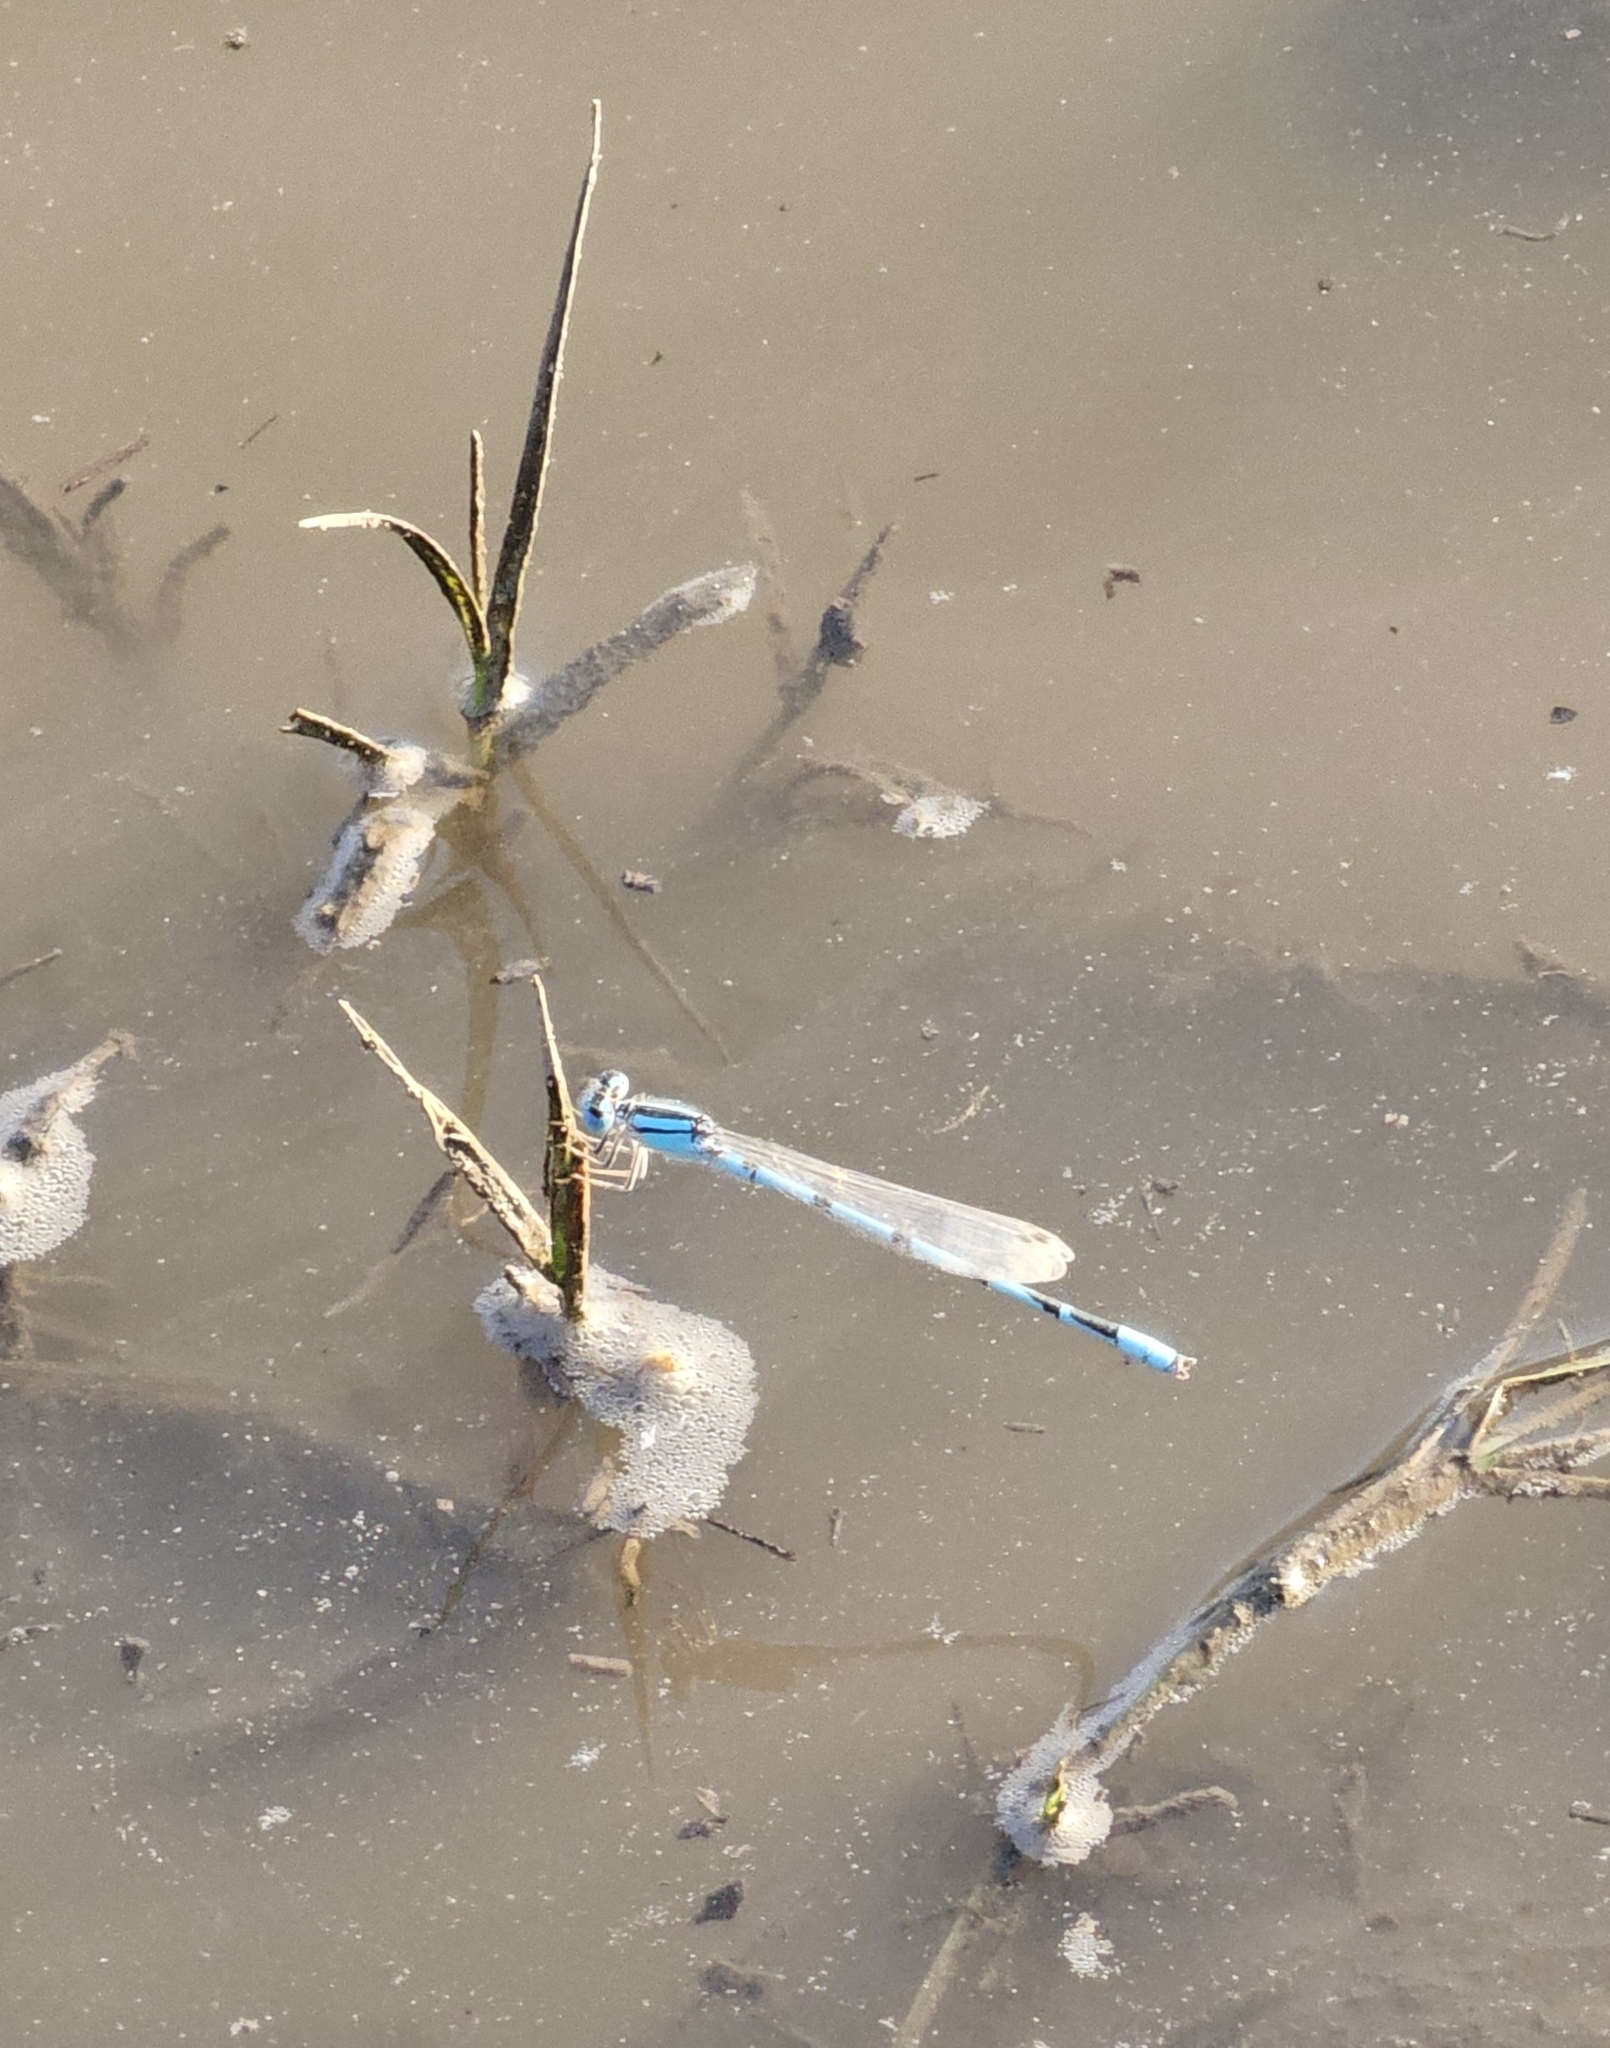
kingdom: Animalia
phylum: Arthropoda
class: Insecta
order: Odonata
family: Coenagrionidae
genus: Enallagma
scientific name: Enallagma civile
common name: Damselfly
